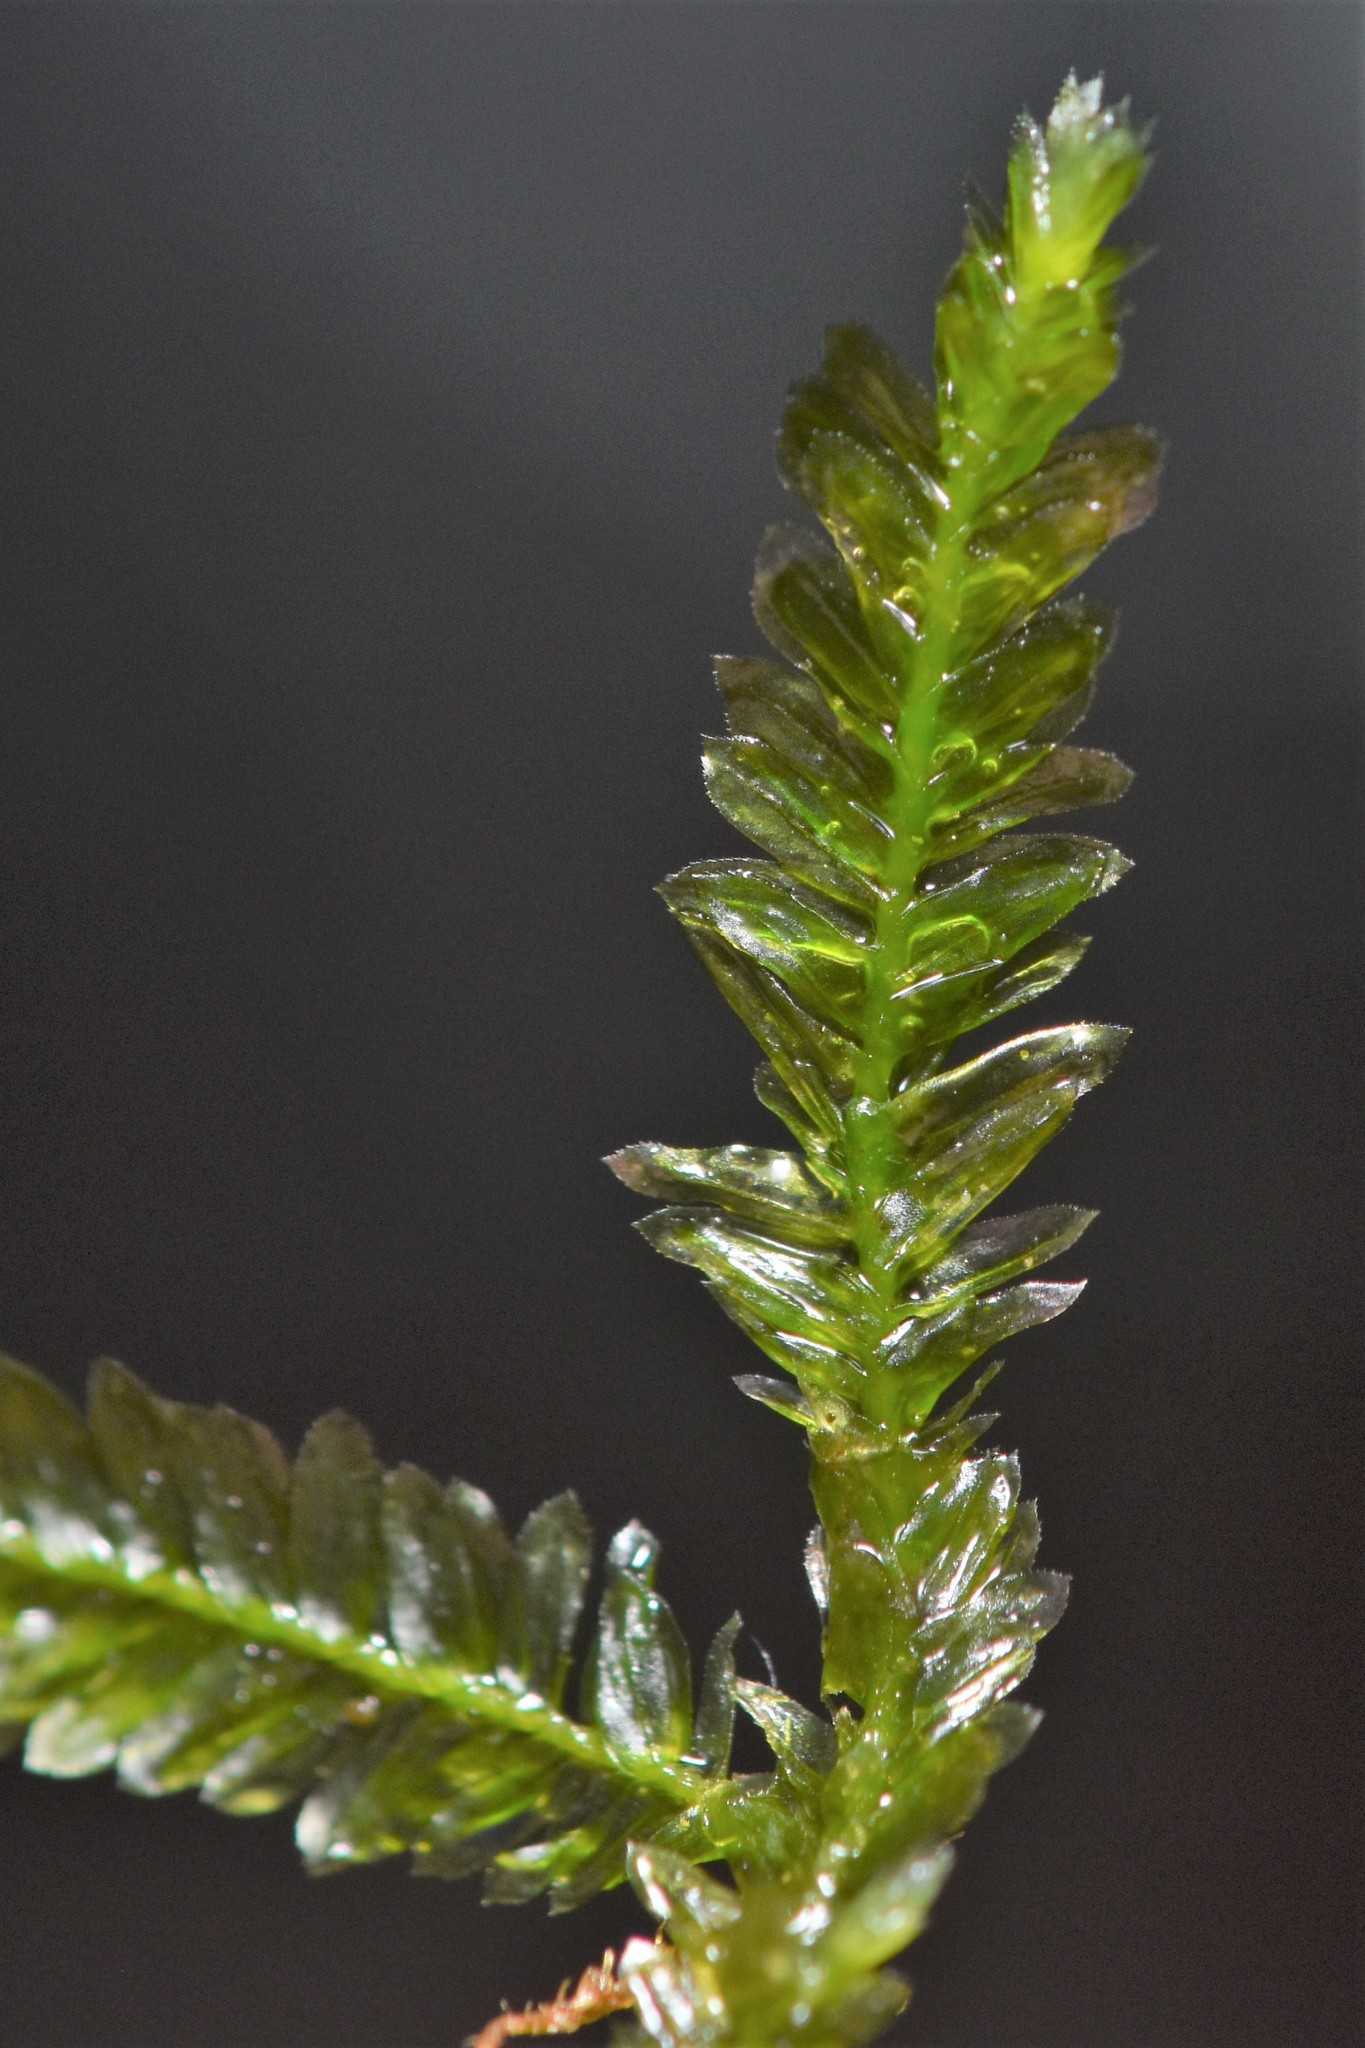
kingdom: Plantae
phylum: Bryophyta
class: Bryopsida
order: Hypnales
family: Neckeraceae
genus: Dannorrisia
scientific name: Dannorrisia bigelovii
